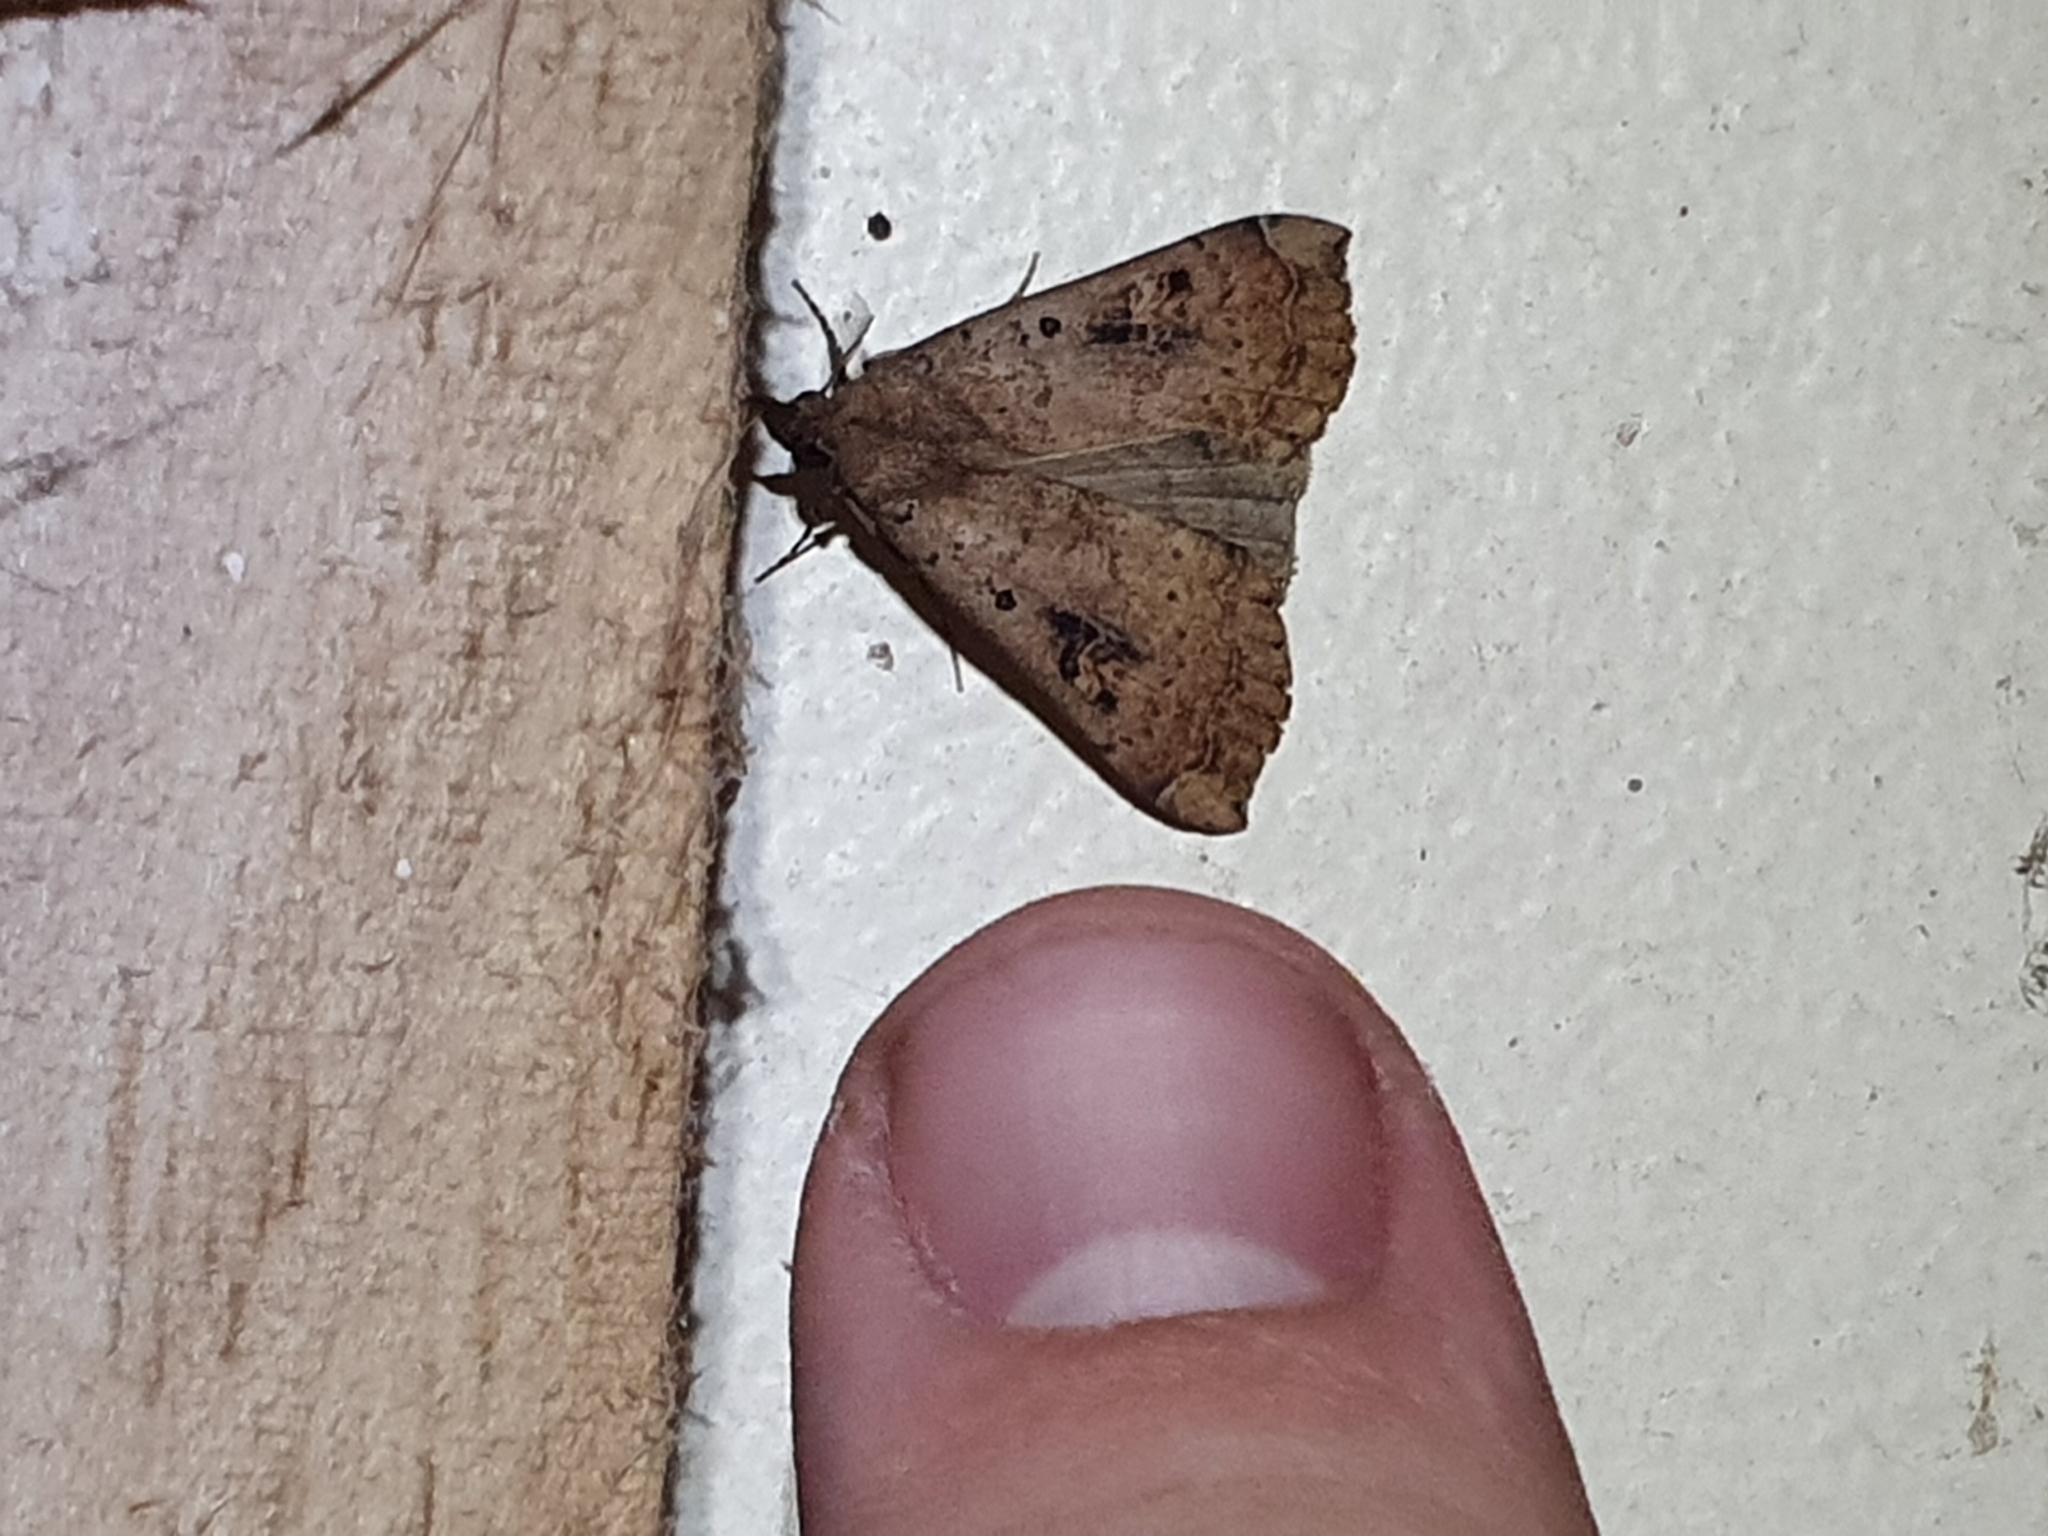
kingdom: Animalia
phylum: Arthropoda
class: Insecta
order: Lepidoptera
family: Erebidae
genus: Rhapsa
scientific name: Rhapsa scotosialis
